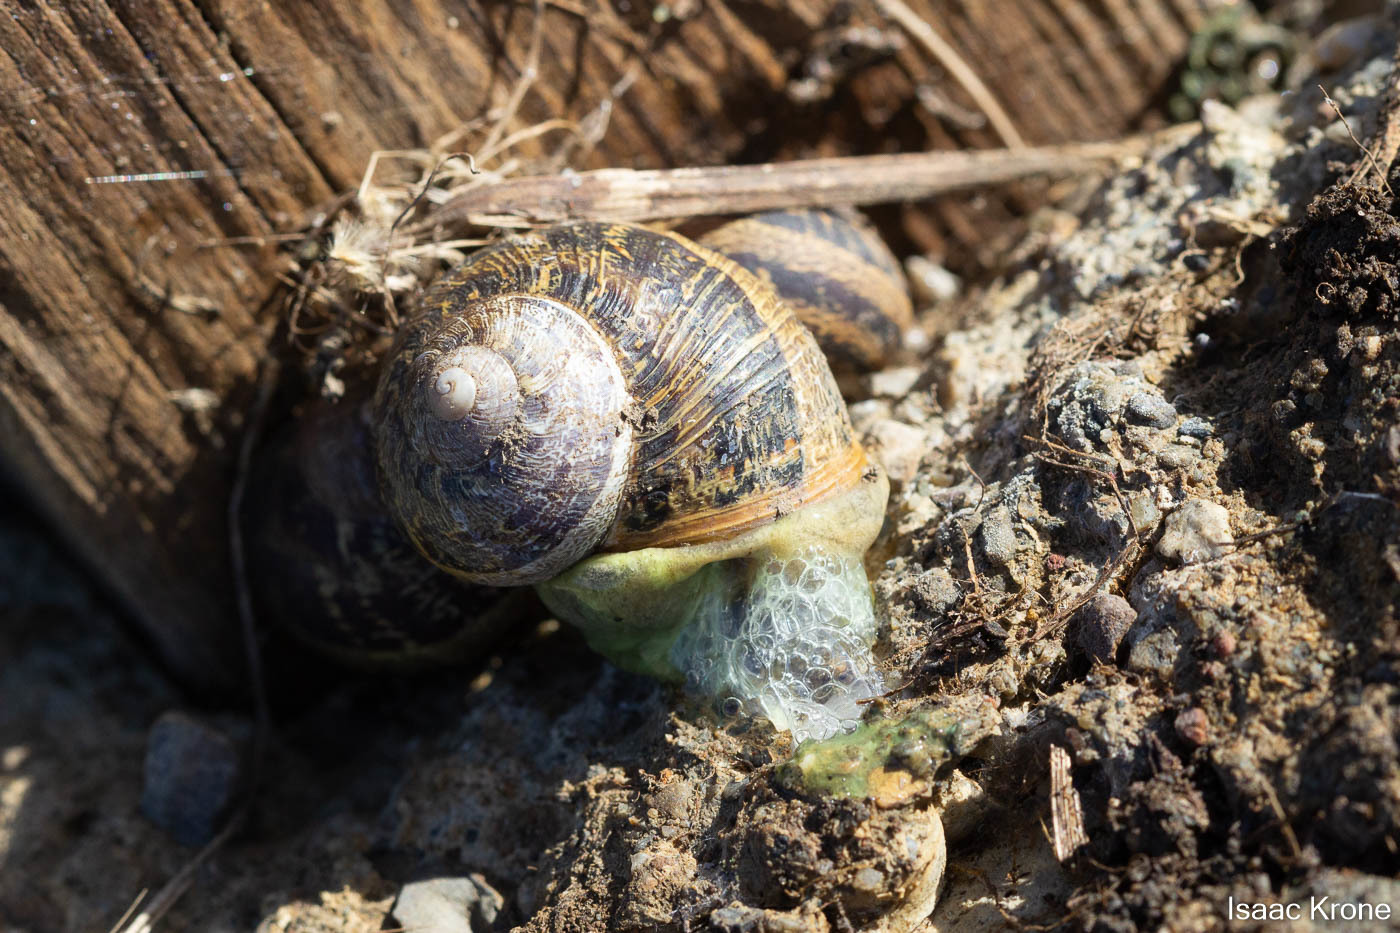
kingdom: Animalia
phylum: Mollusca
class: Gastropoda
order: Stylommatophora
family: Helicidae
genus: Cornu
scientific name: Cornu aspersum
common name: Brown garden snail
